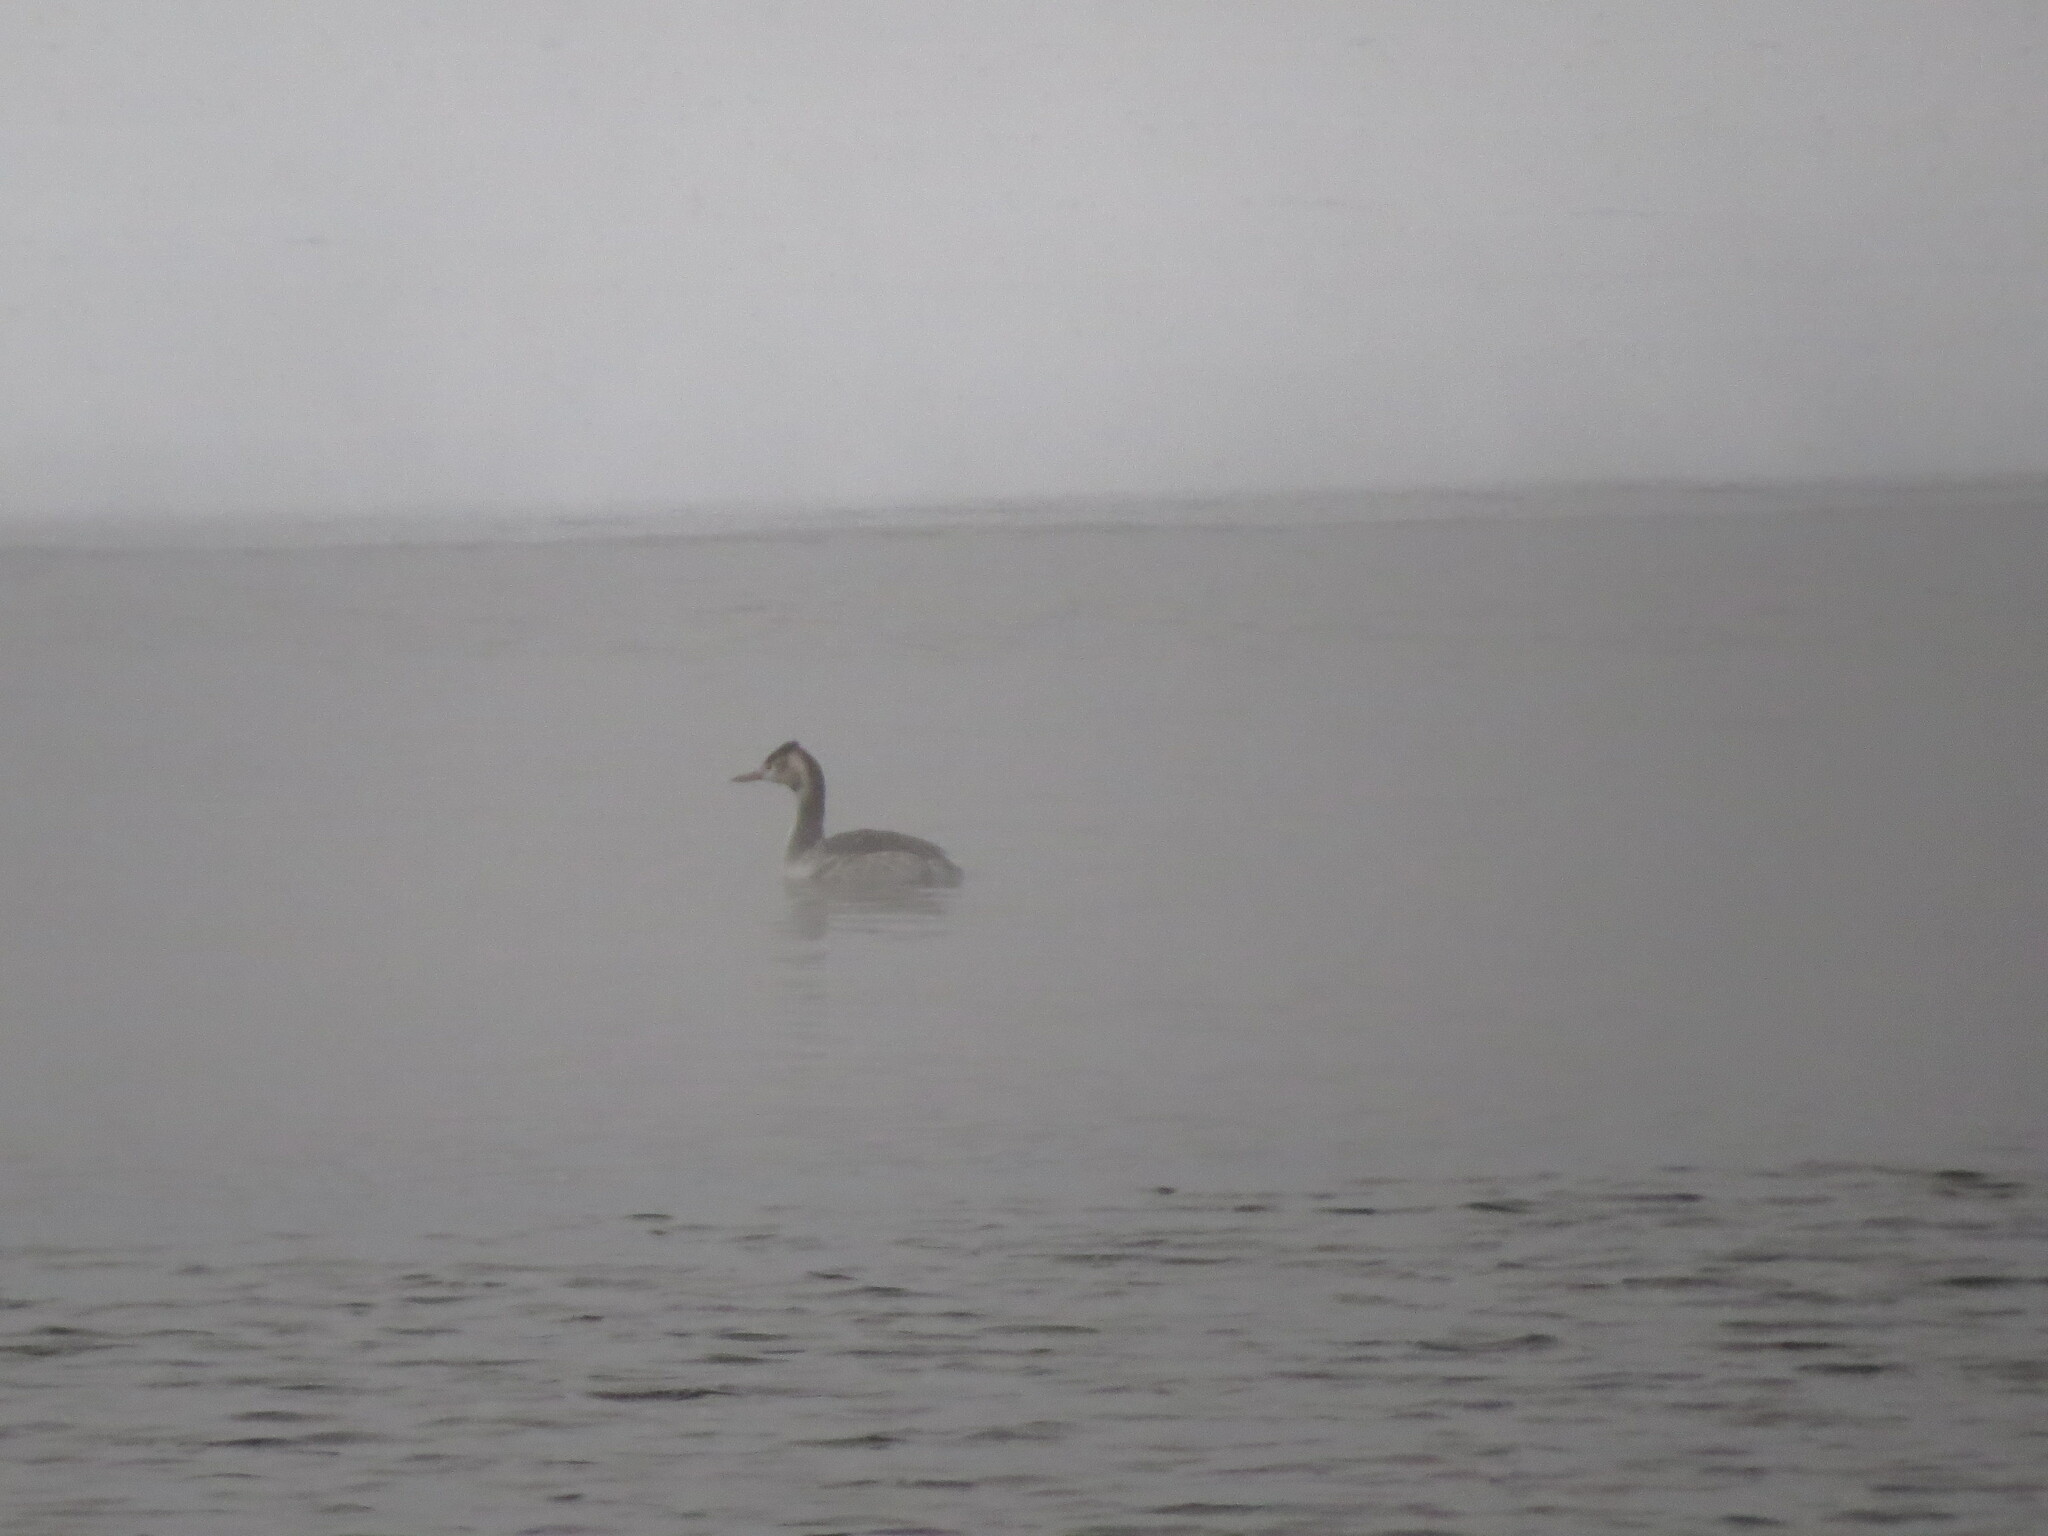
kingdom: Animalia
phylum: Chordata
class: Aves
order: Podicipediformes
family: Podicipedidae
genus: Podiceps
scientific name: Podiceps cristatus
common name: Great crested grebe
